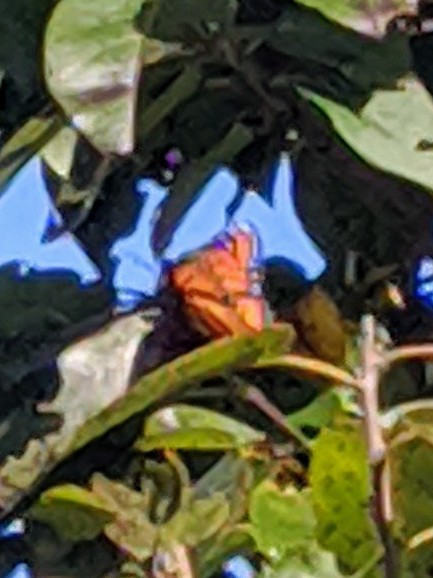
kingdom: Animalia
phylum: Arthropoda
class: Insecta
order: Lepidoptera
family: Nymphalidae
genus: Danaus
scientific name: Danaus plexippus
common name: Monarch
